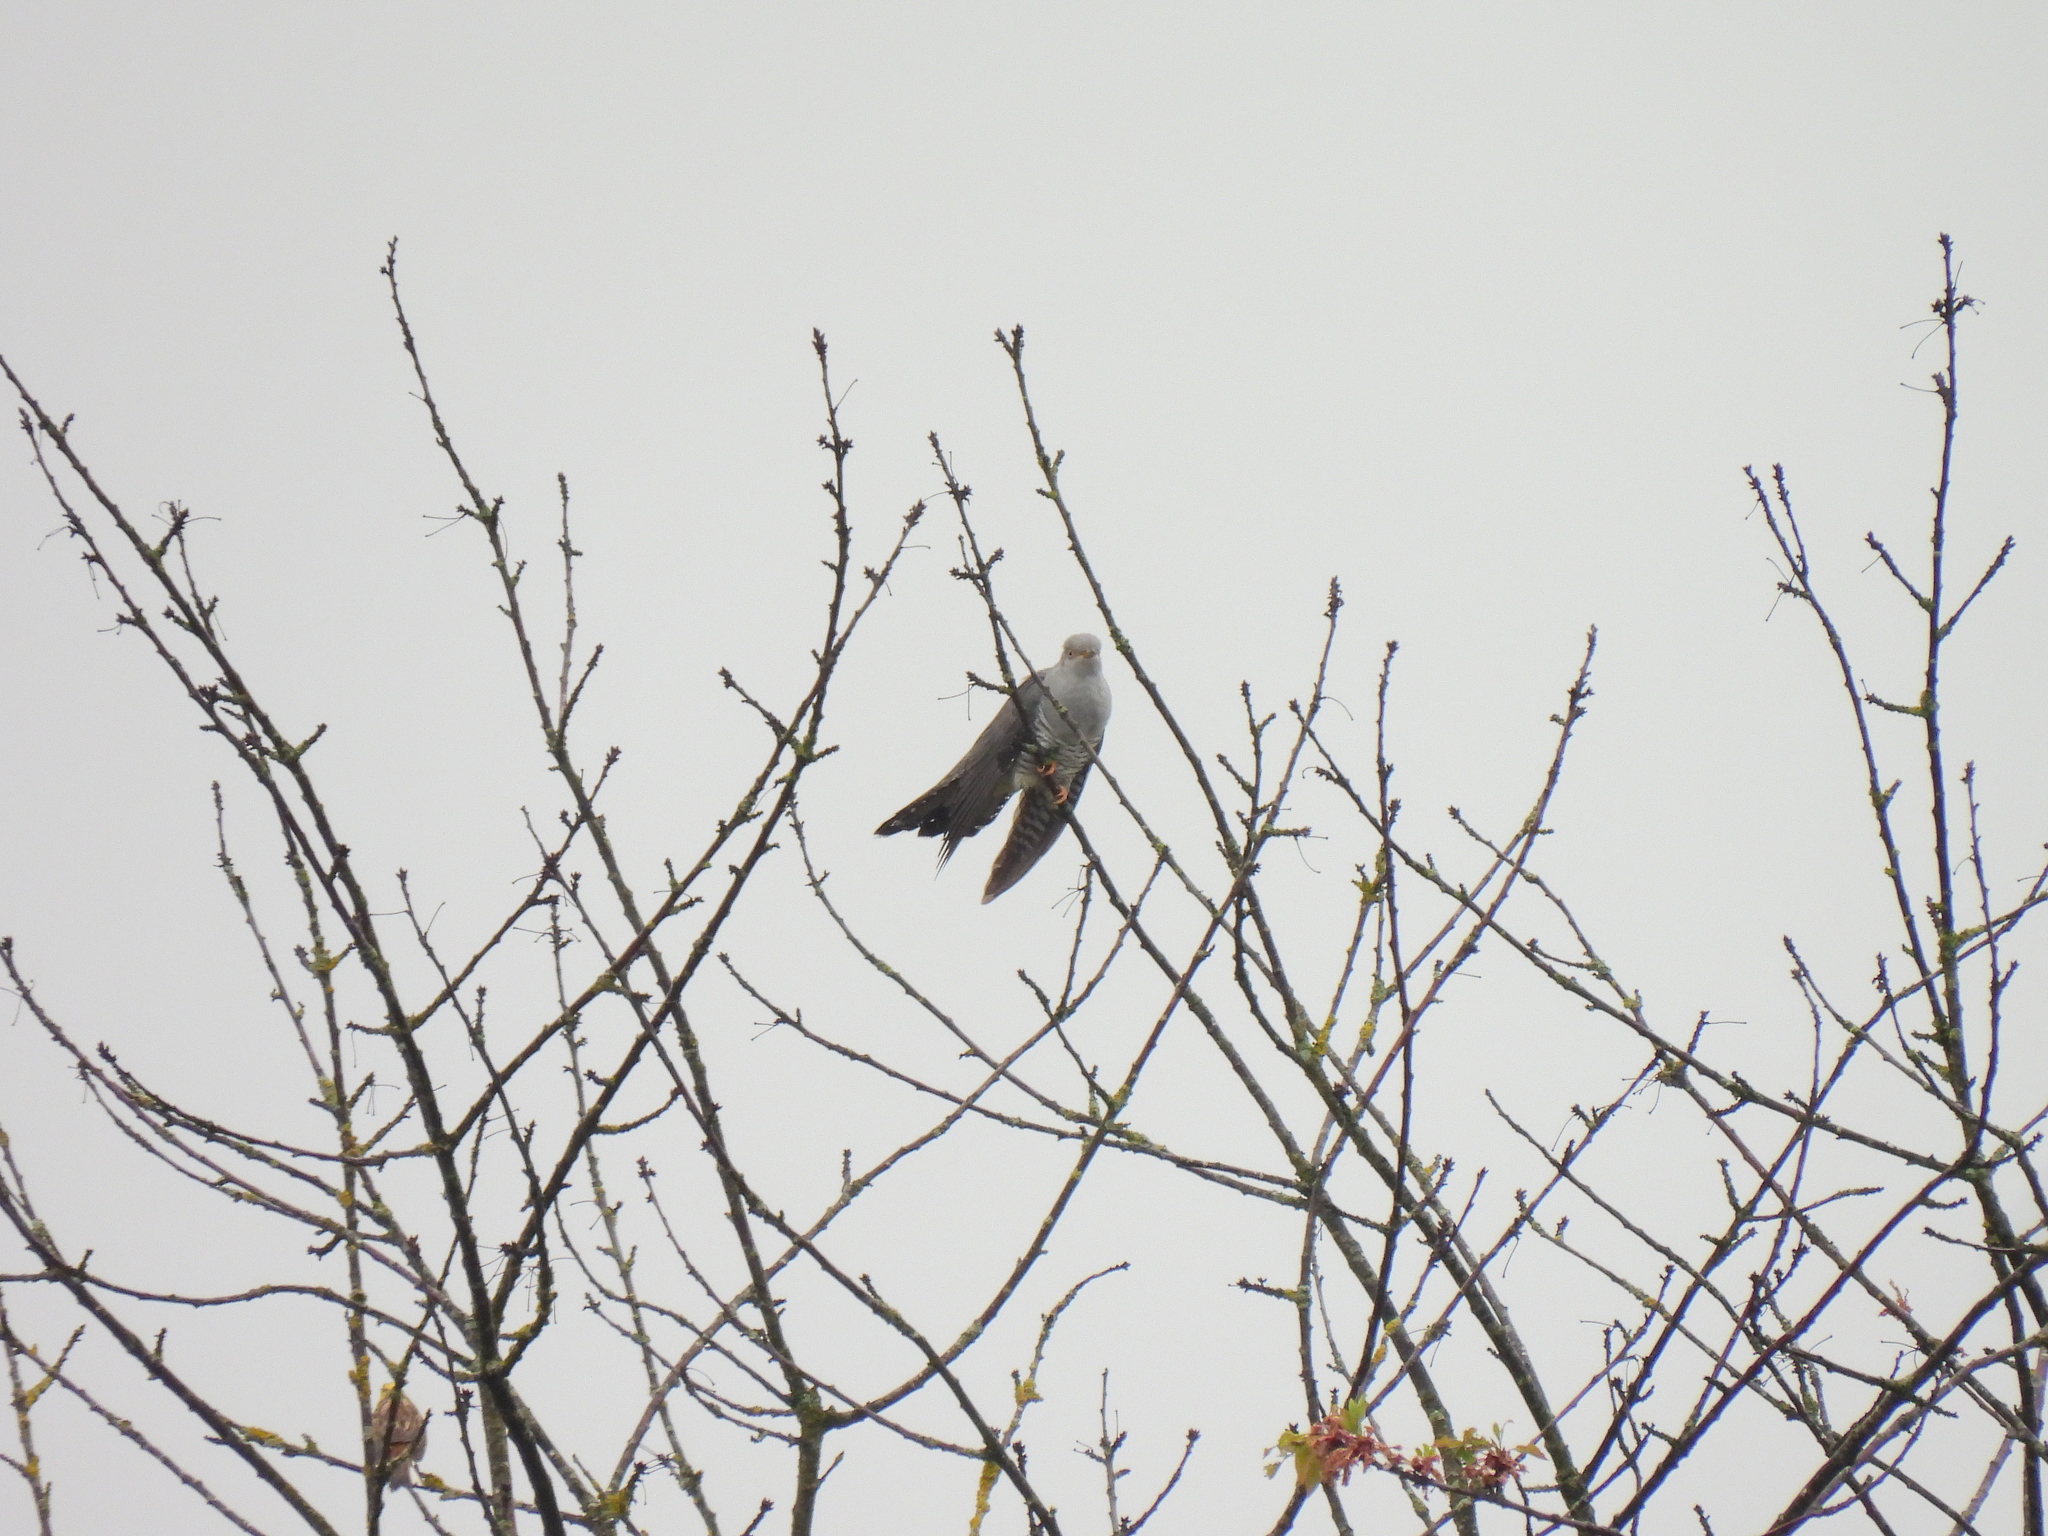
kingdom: Animalia
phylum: Chordata
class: Aves
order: Cuculiformes
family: Cuculidae
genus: Cuculus
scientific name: Cuculus canorus
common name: Common cuckoo
